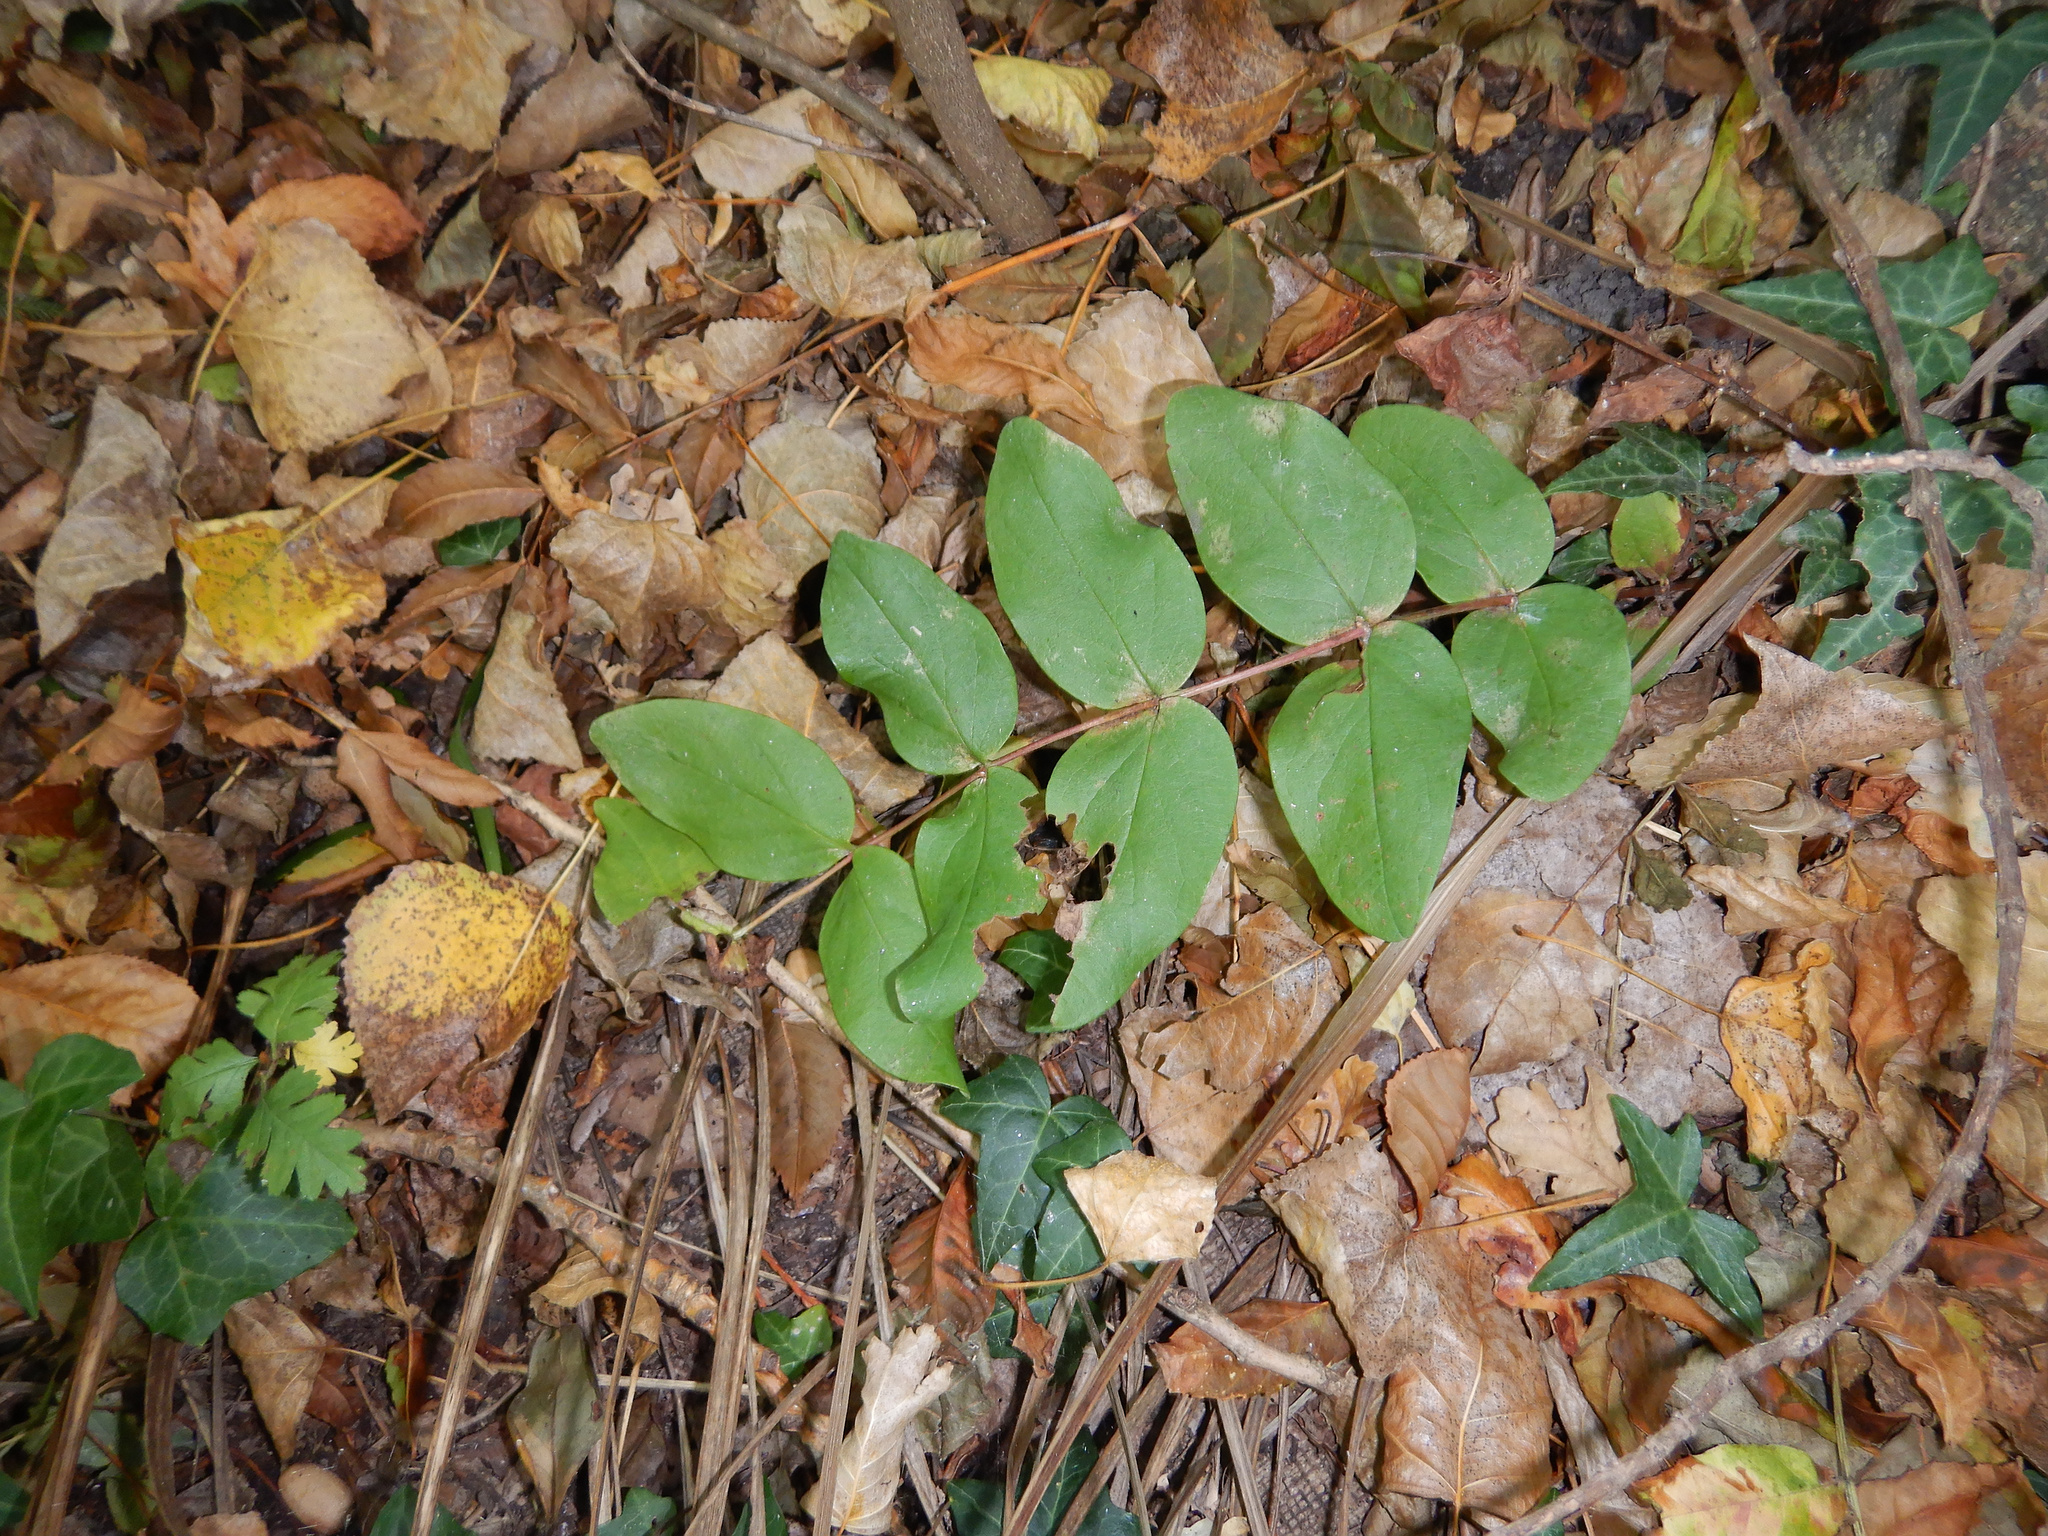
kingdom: Plantae
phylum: Tracheophyta
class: Magnoliopsida
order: Malpighiales
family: Hypericaceae
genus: Hypericum
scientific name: Hypericum androsaemum
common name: Sweet-amber
